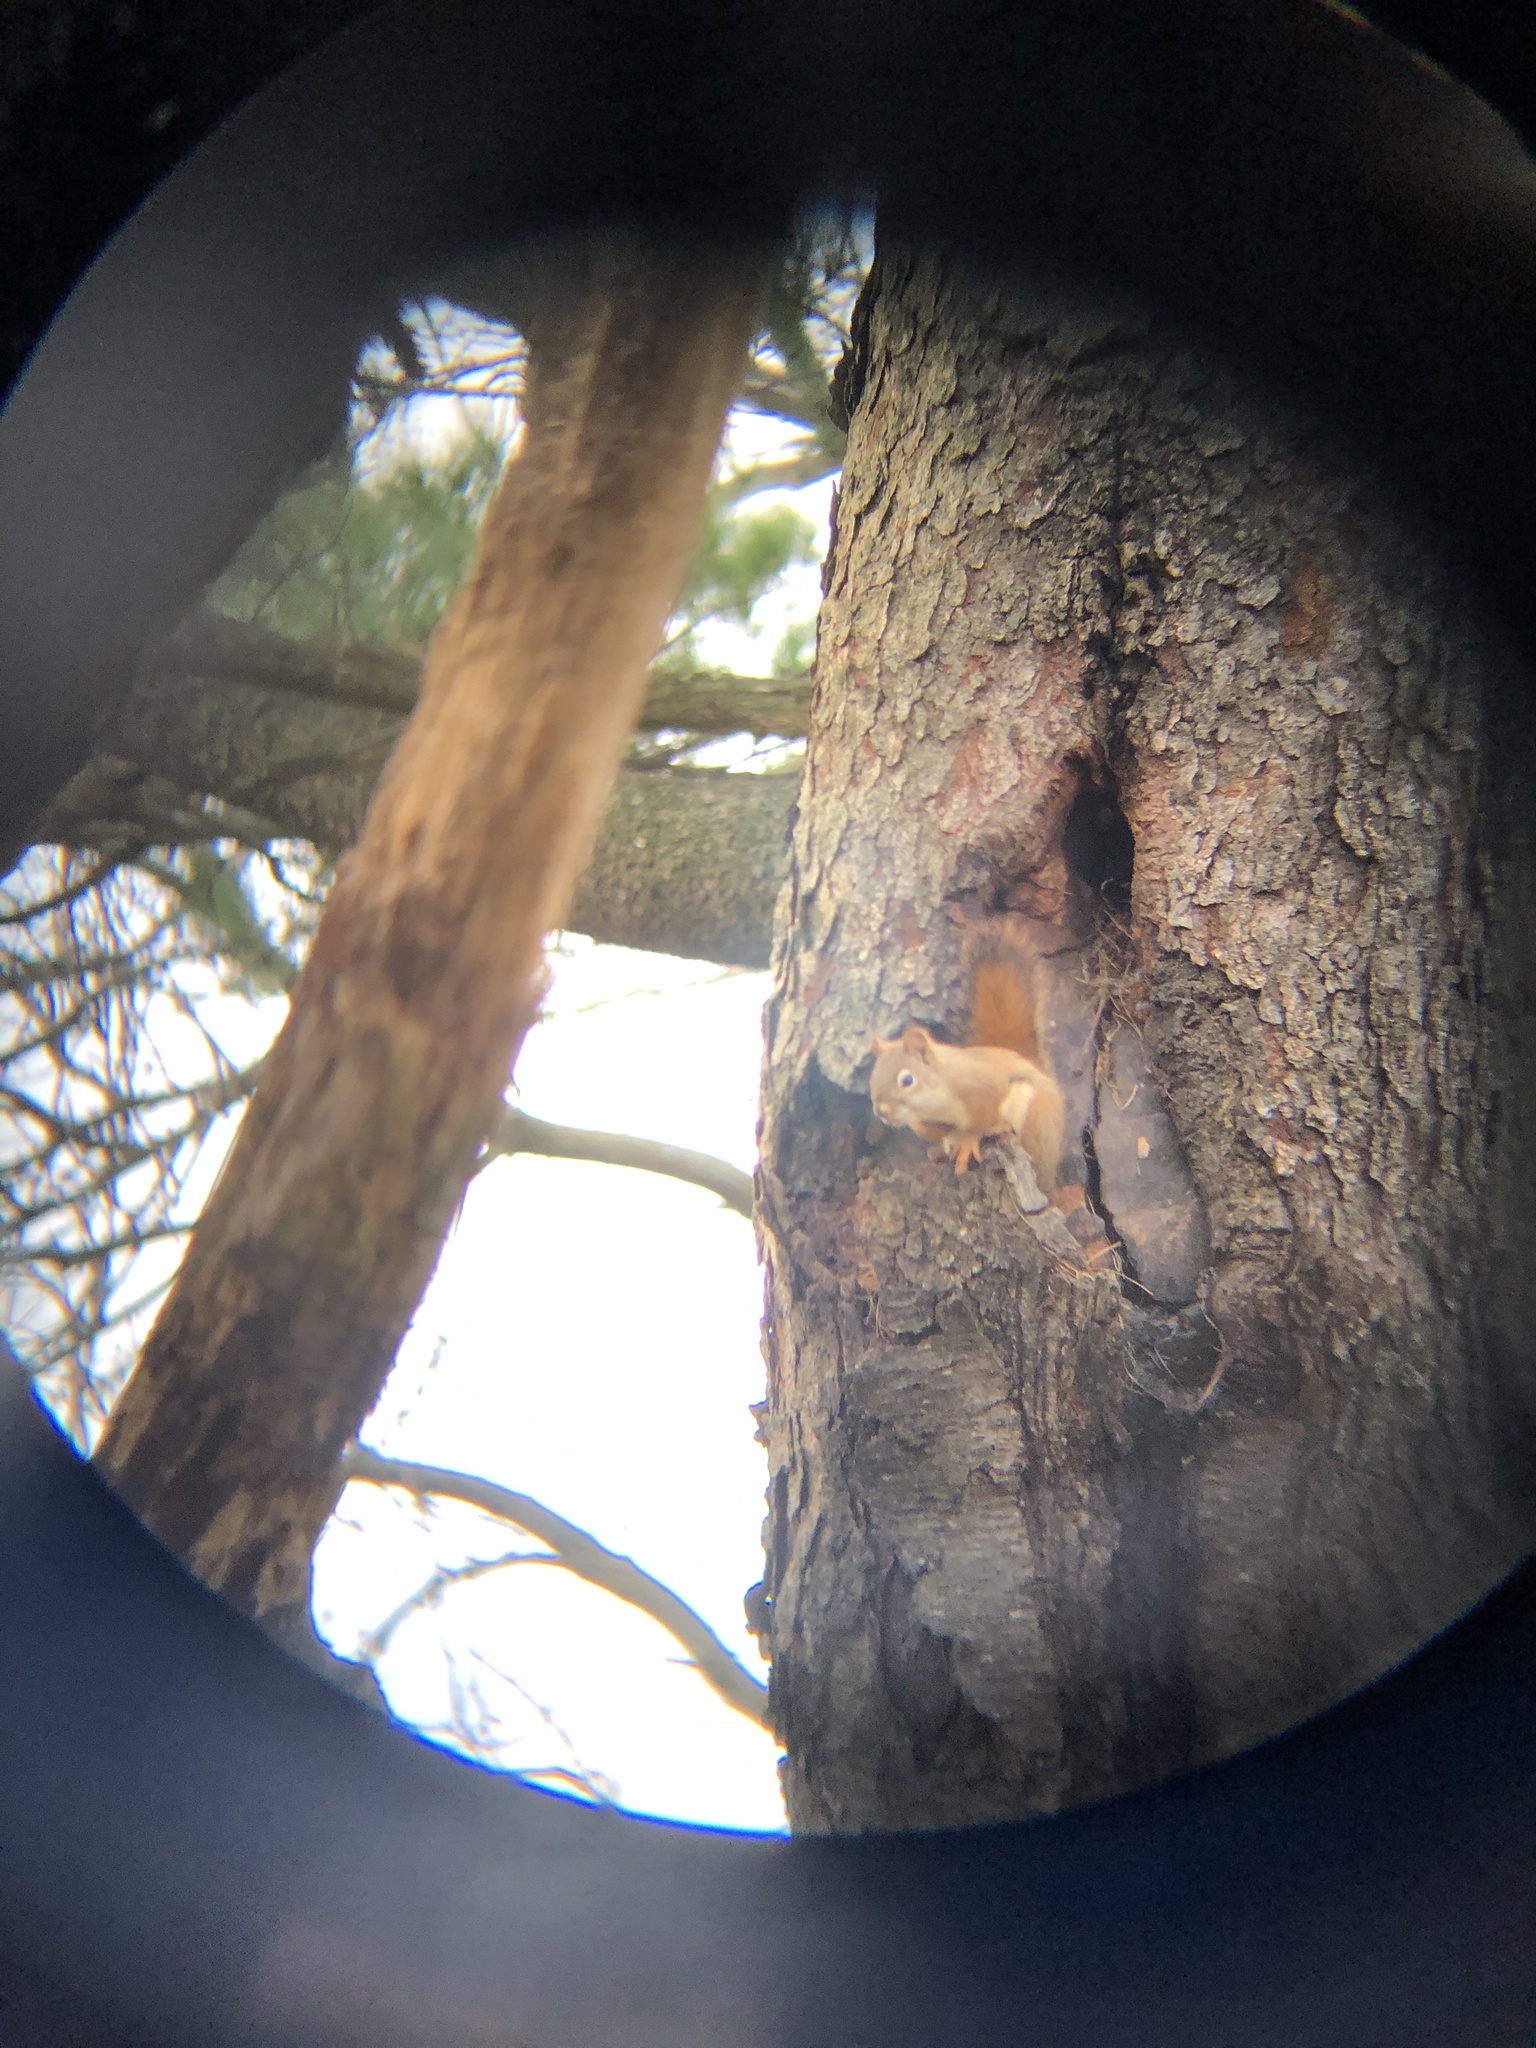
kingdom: Animalia
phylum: Chordata
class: Mammalia
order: Rodentia
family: Sciuridae
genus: Tamiasciurus
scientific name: Tamiasciurus hudsonicus
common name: Red squirrel
